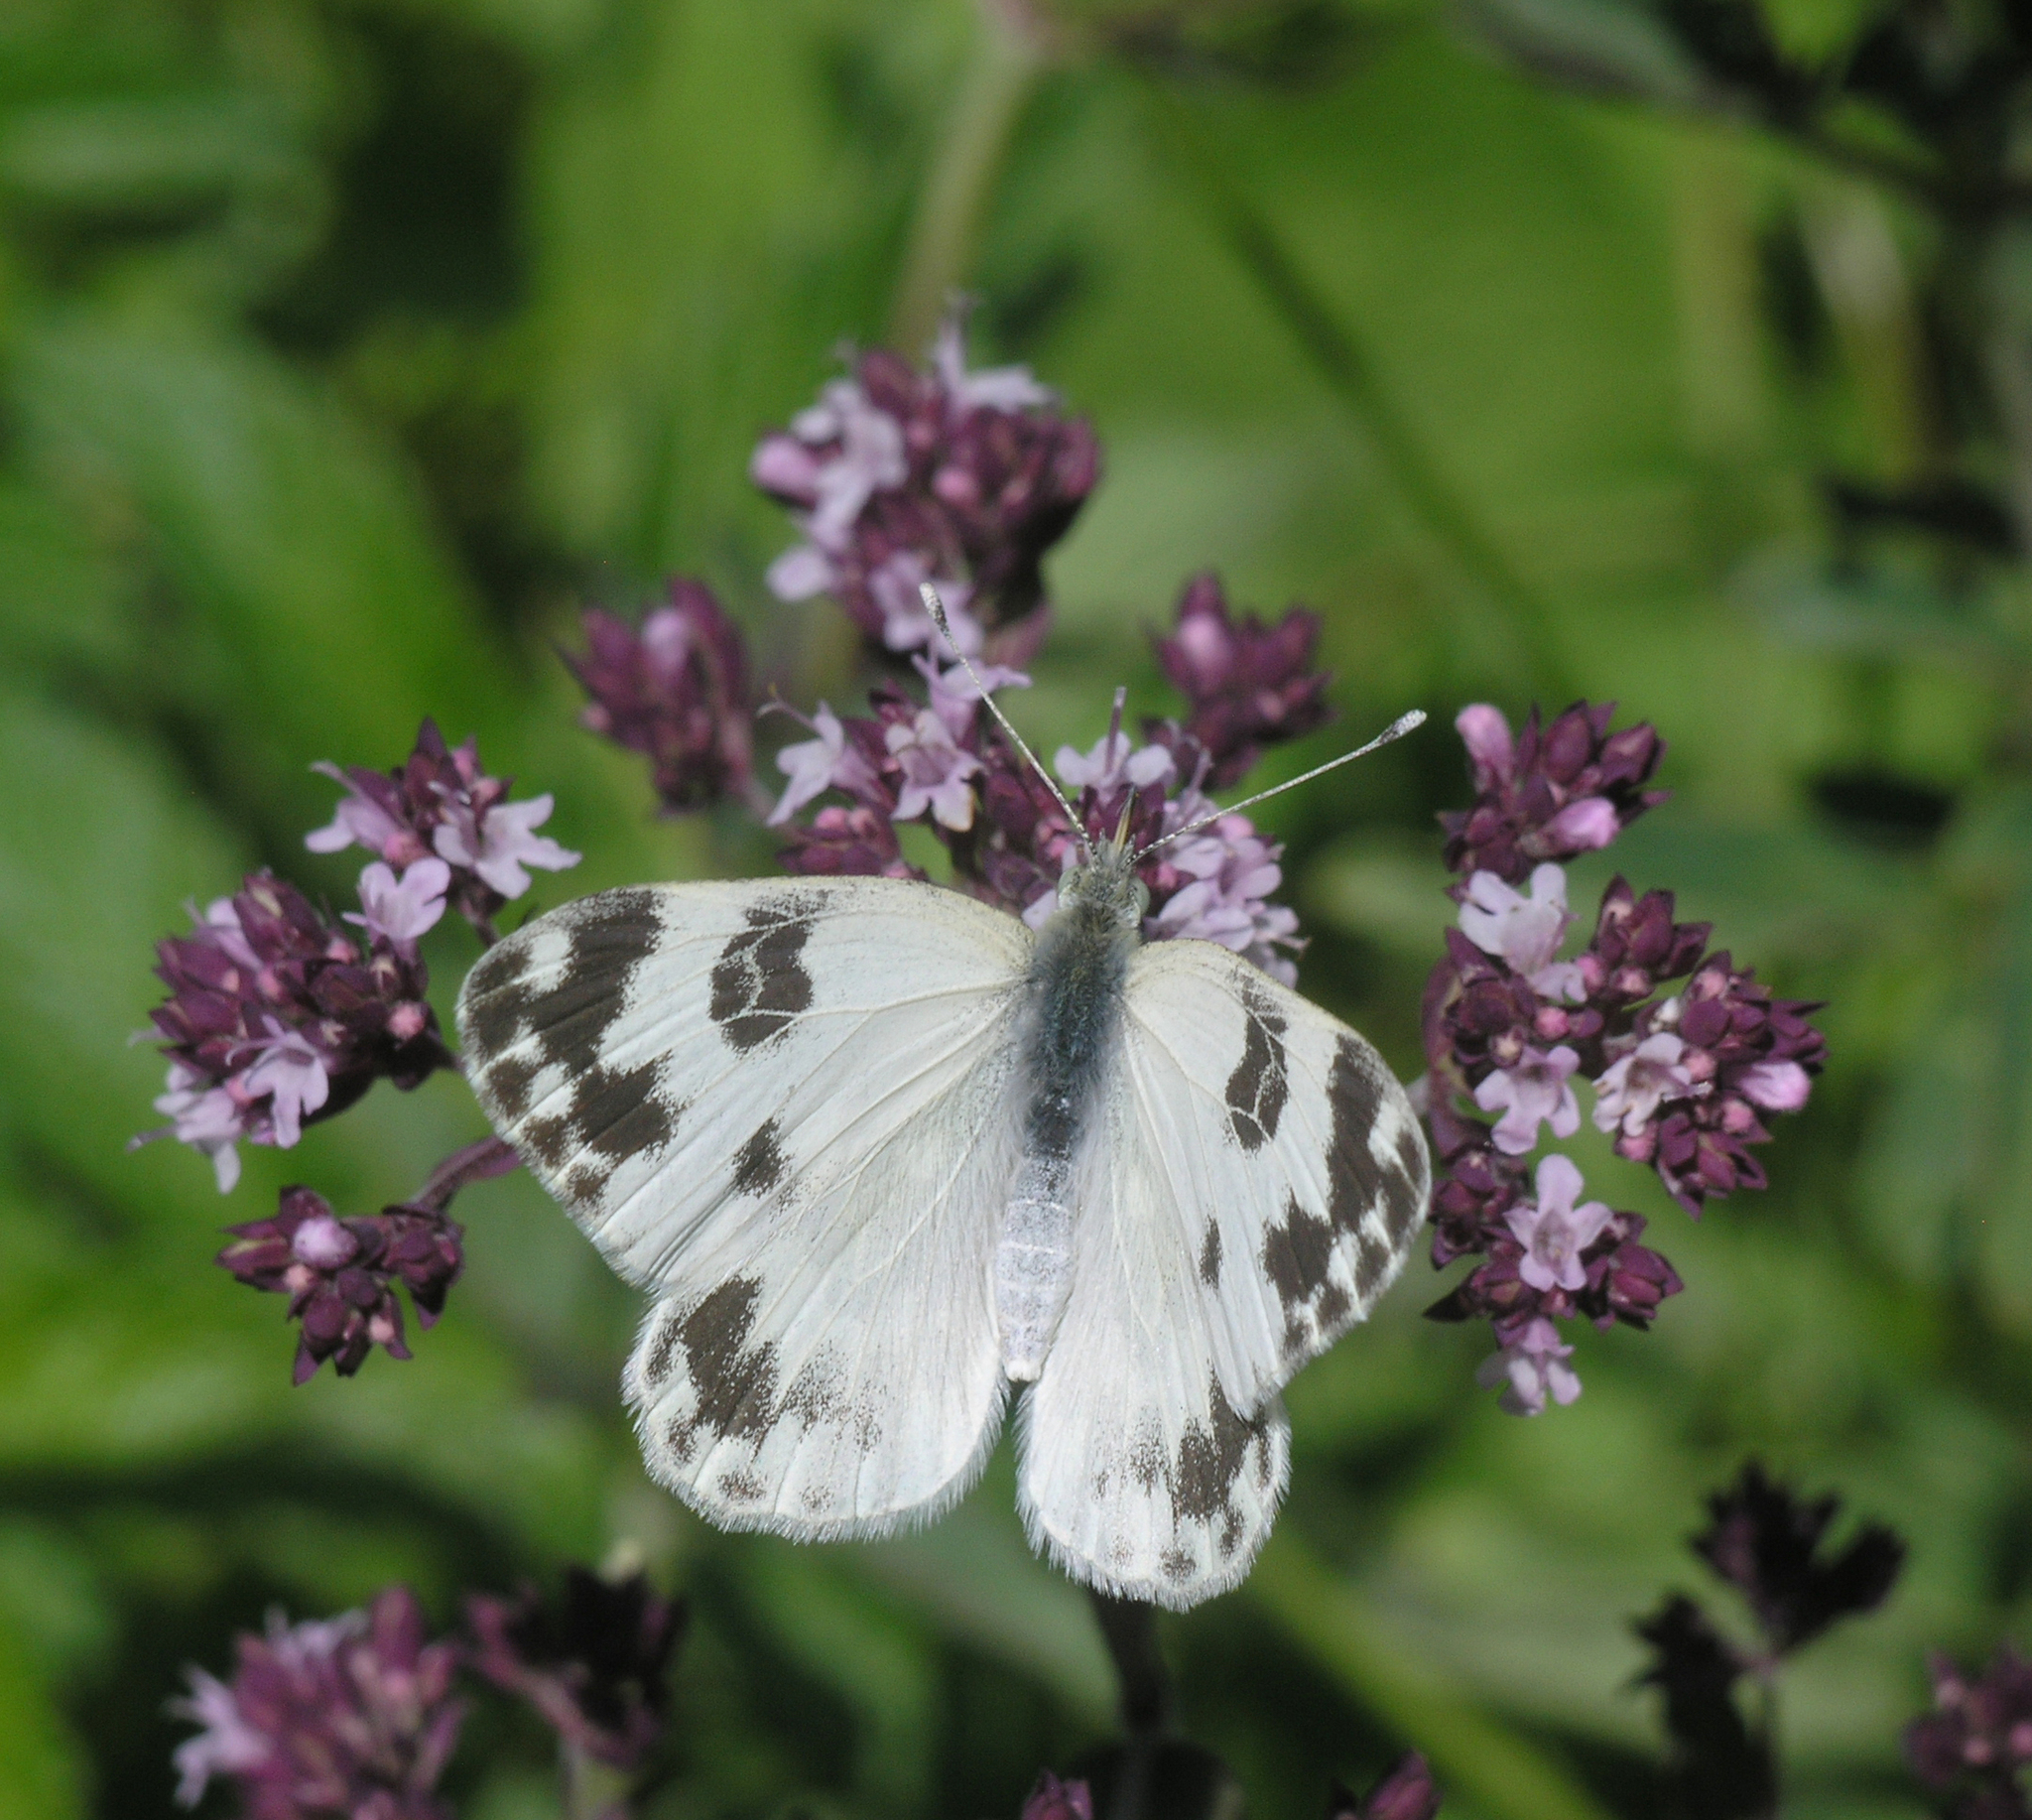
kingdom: Plantae
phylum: Tracheophyta
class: Magnoliopsida
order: Lamiales
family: Lamiaceae
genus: Origanum
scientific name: Origanum vulgare
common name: Wild marjoram
